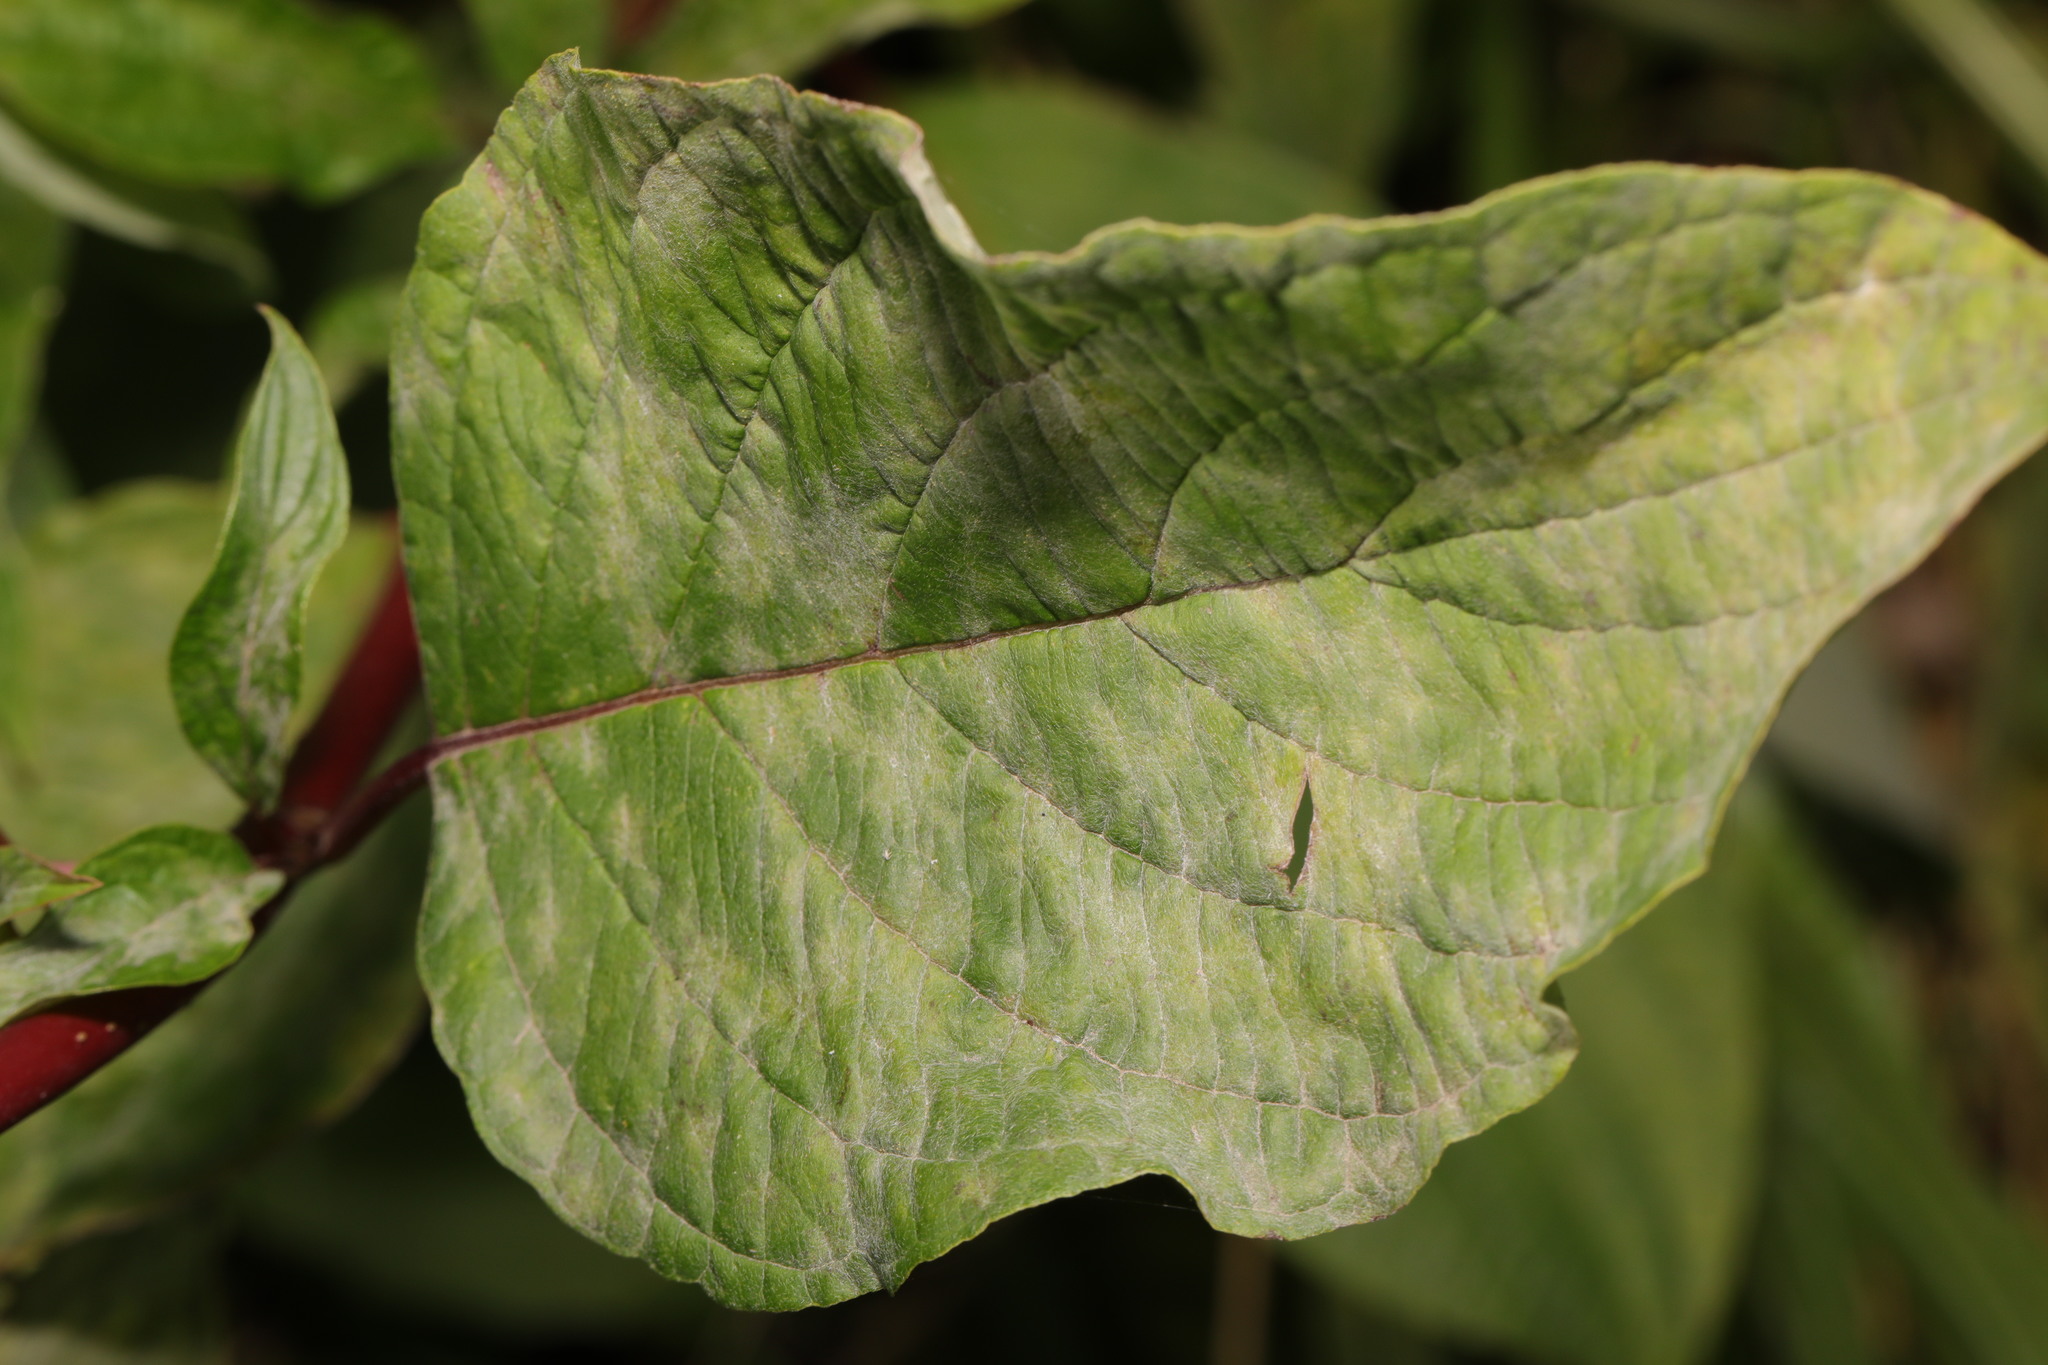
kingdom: Fungi
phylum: Ascomycota
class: Leotiomycetes
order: Helotiales
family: Erysiphaceae
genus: Erysiphe
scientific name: Erysiphe tortilis
